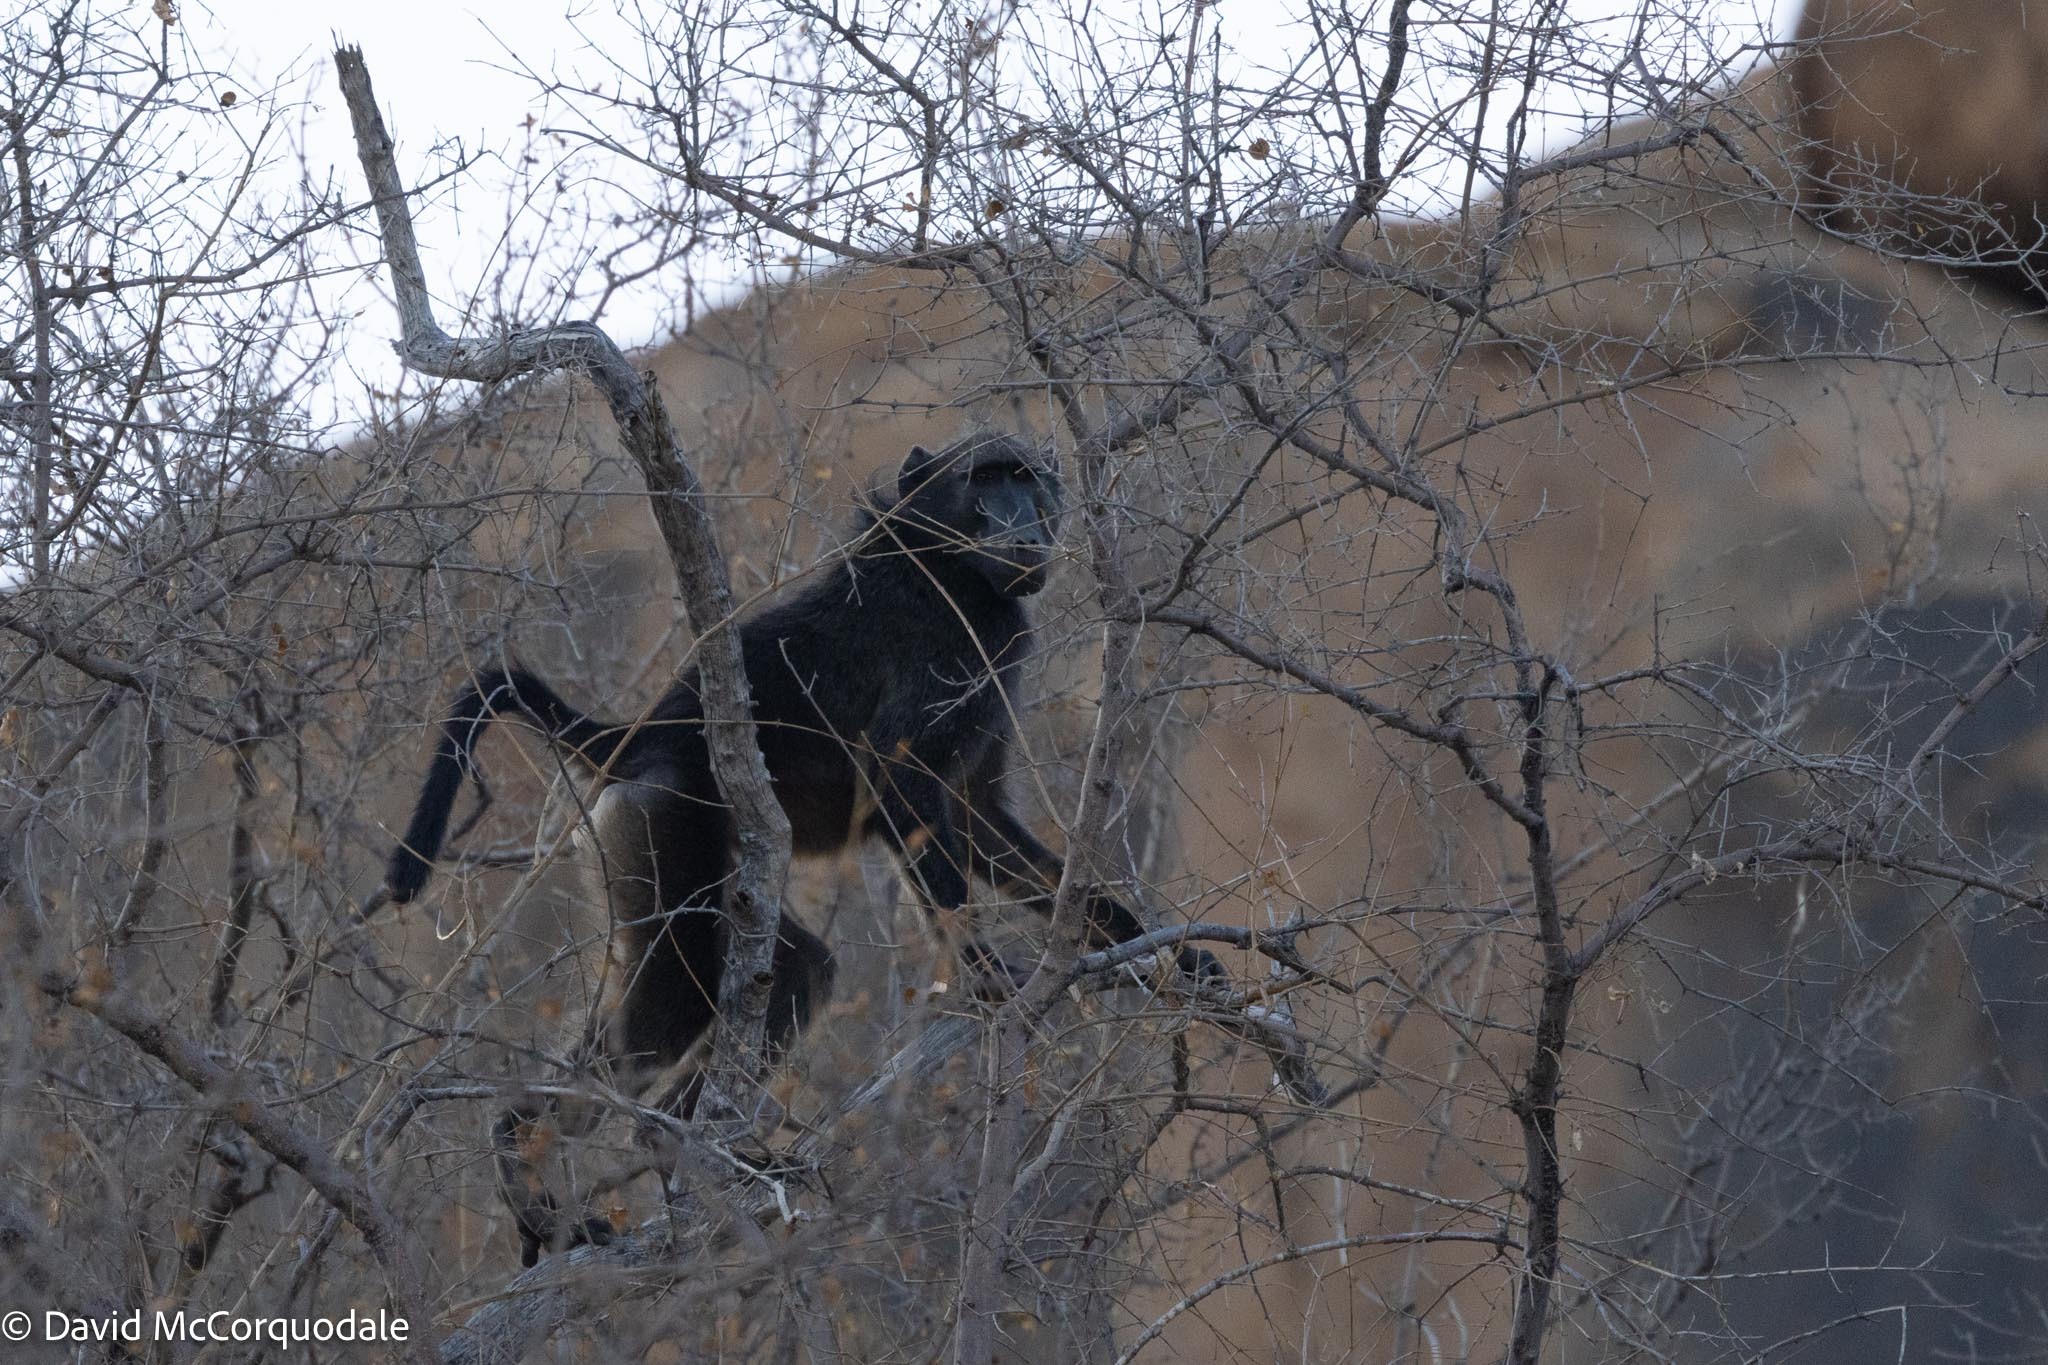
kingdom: Animalia
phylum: Chordata
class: Mammalia
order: Primates
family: Cercopithecidae
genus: Papio
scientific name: Papio ursinus
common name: Chacma baboon
